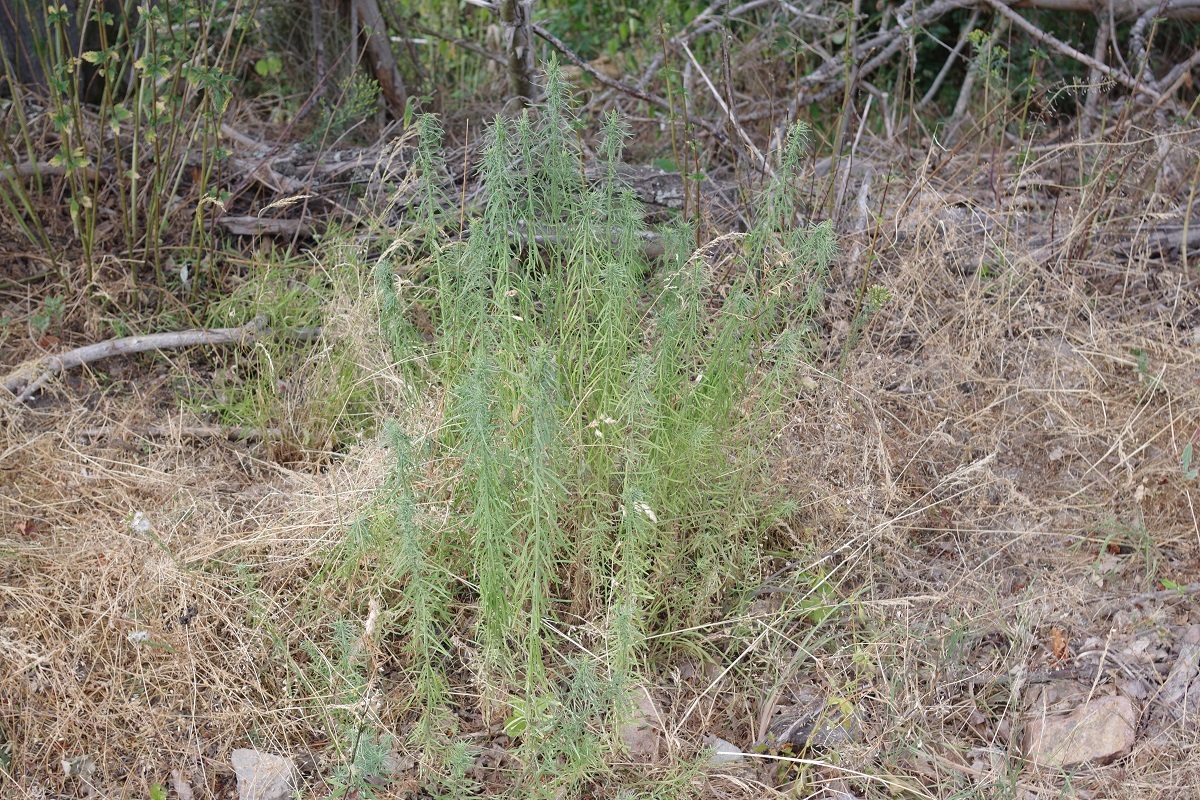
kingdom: Plantae
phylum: Tracheophyta
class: Magnoliopsida
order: Lamiales
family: Plantaginaceae
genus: Linaria
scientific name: Linaria vulgaris
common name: Butter and eggs
